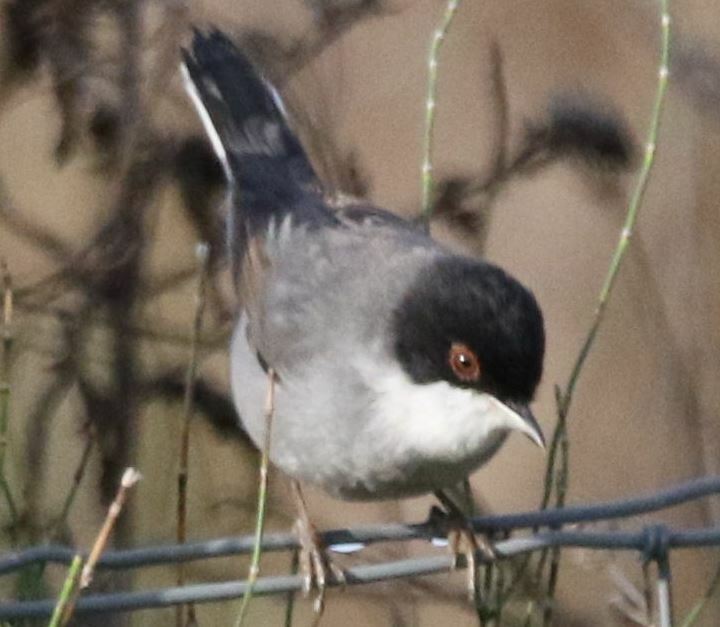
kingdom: Animalia
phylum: Chordata
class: Aves
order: Passeriformes
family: Sylviidae
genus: Curruca
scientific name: Curruca melanocephala
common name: Sardinian warbler
